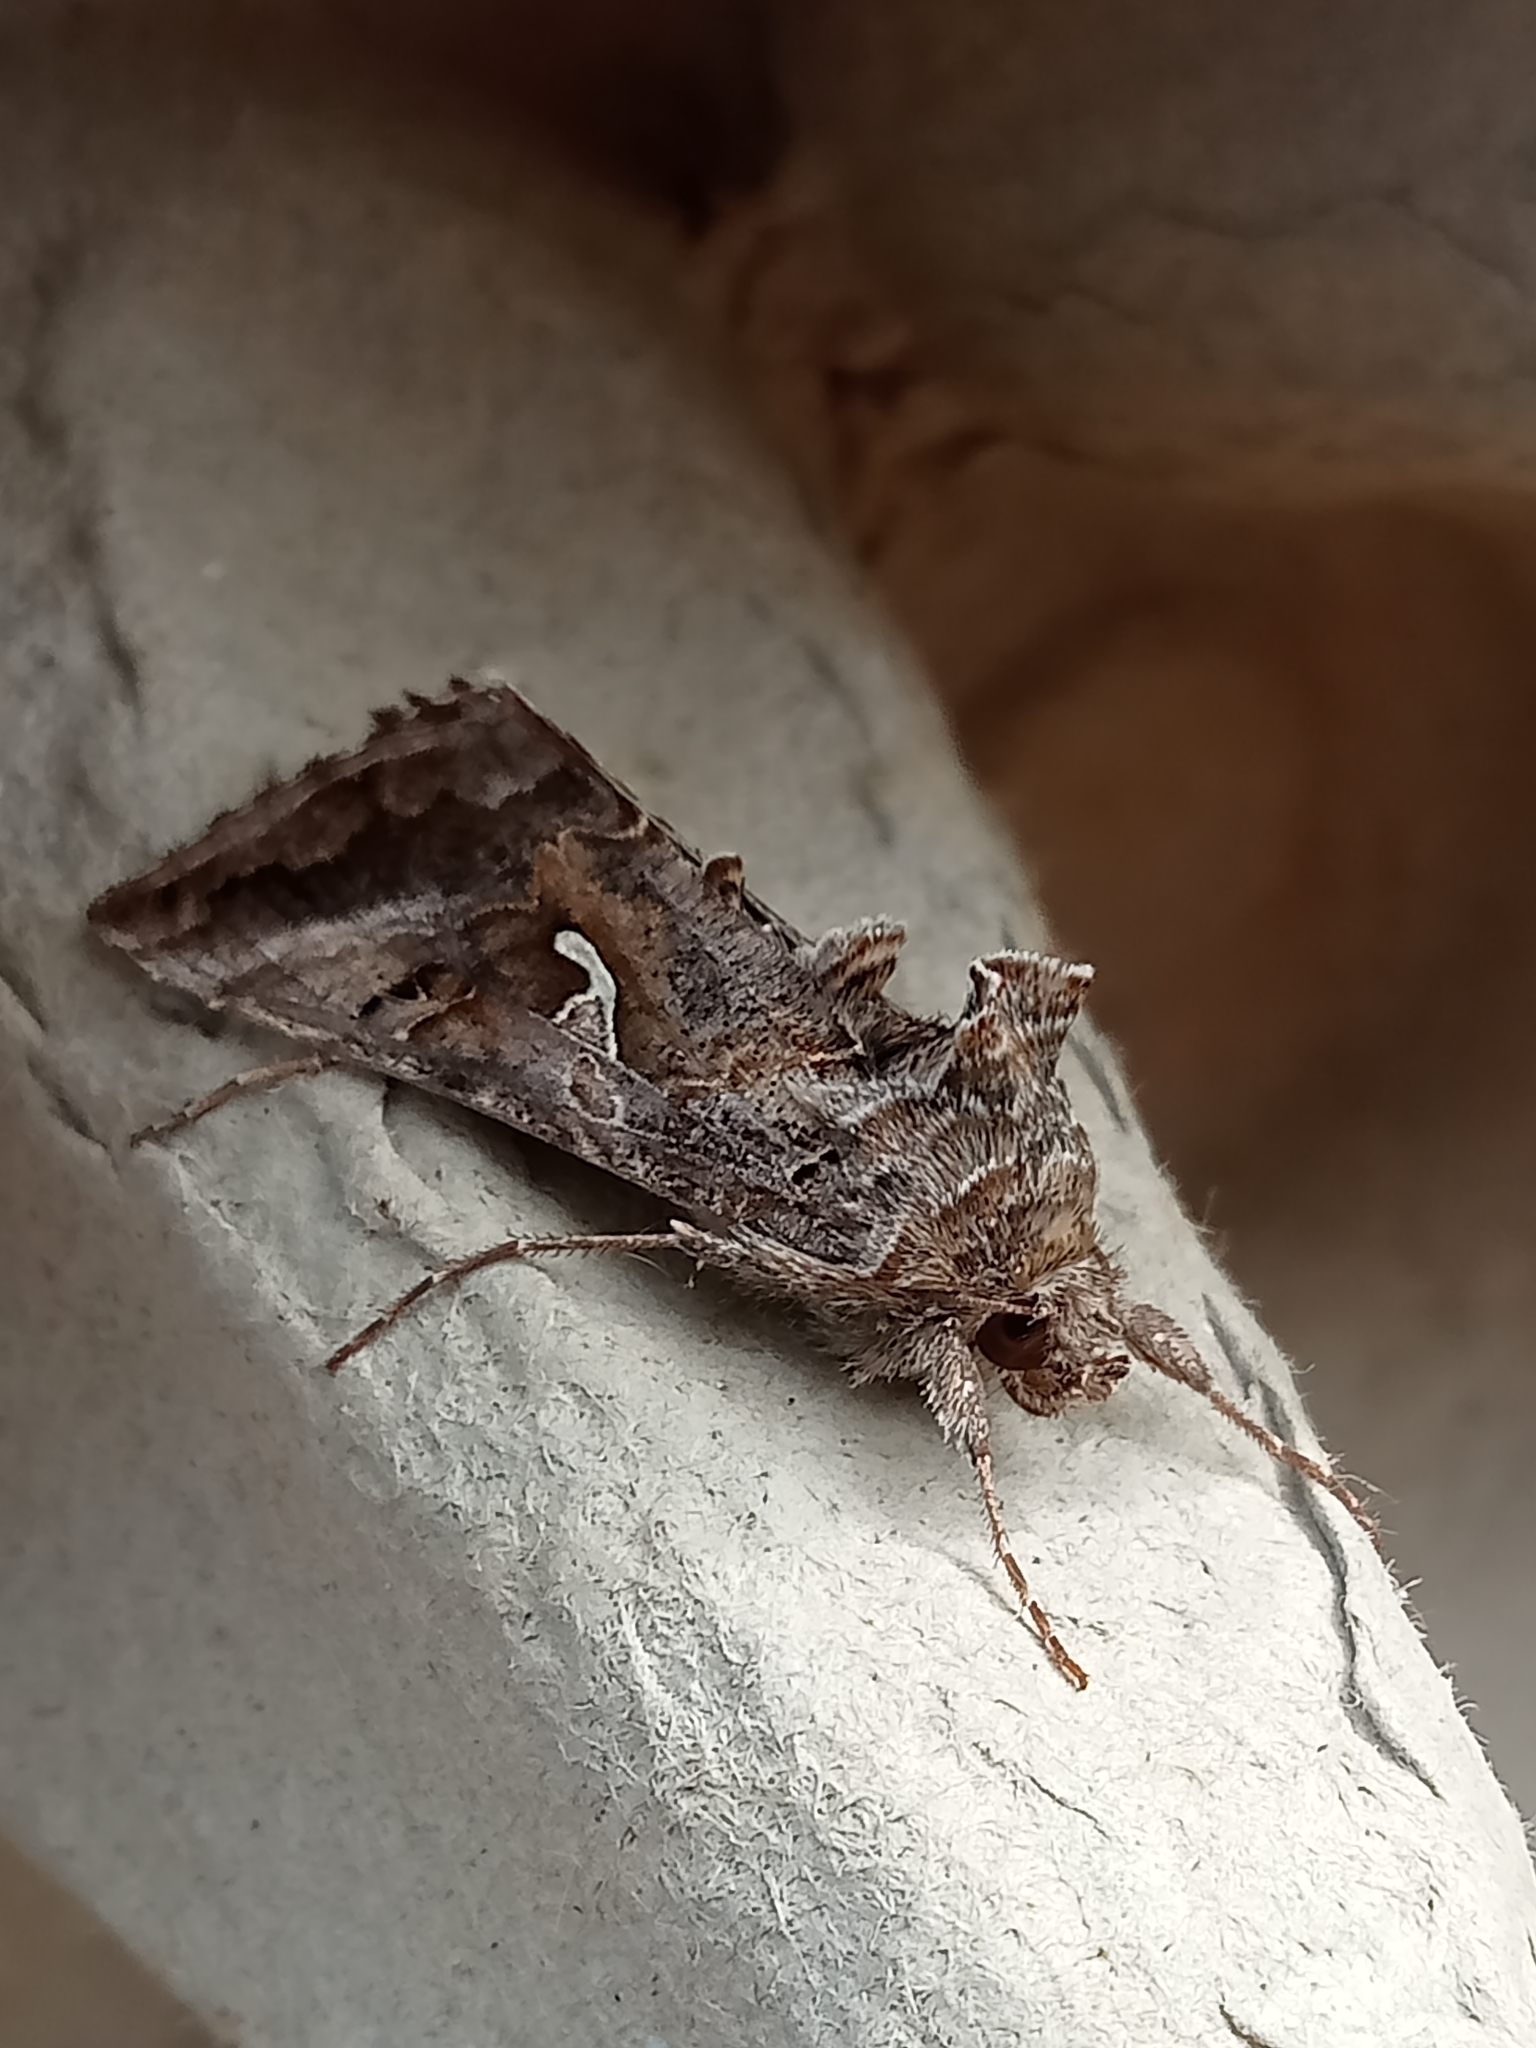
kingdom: Animalia
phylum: Arthropoda
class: Insecta
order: Lepidoptera
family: Noctuidae
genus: Autographa
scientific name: Autographa gamma
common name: Silver y
